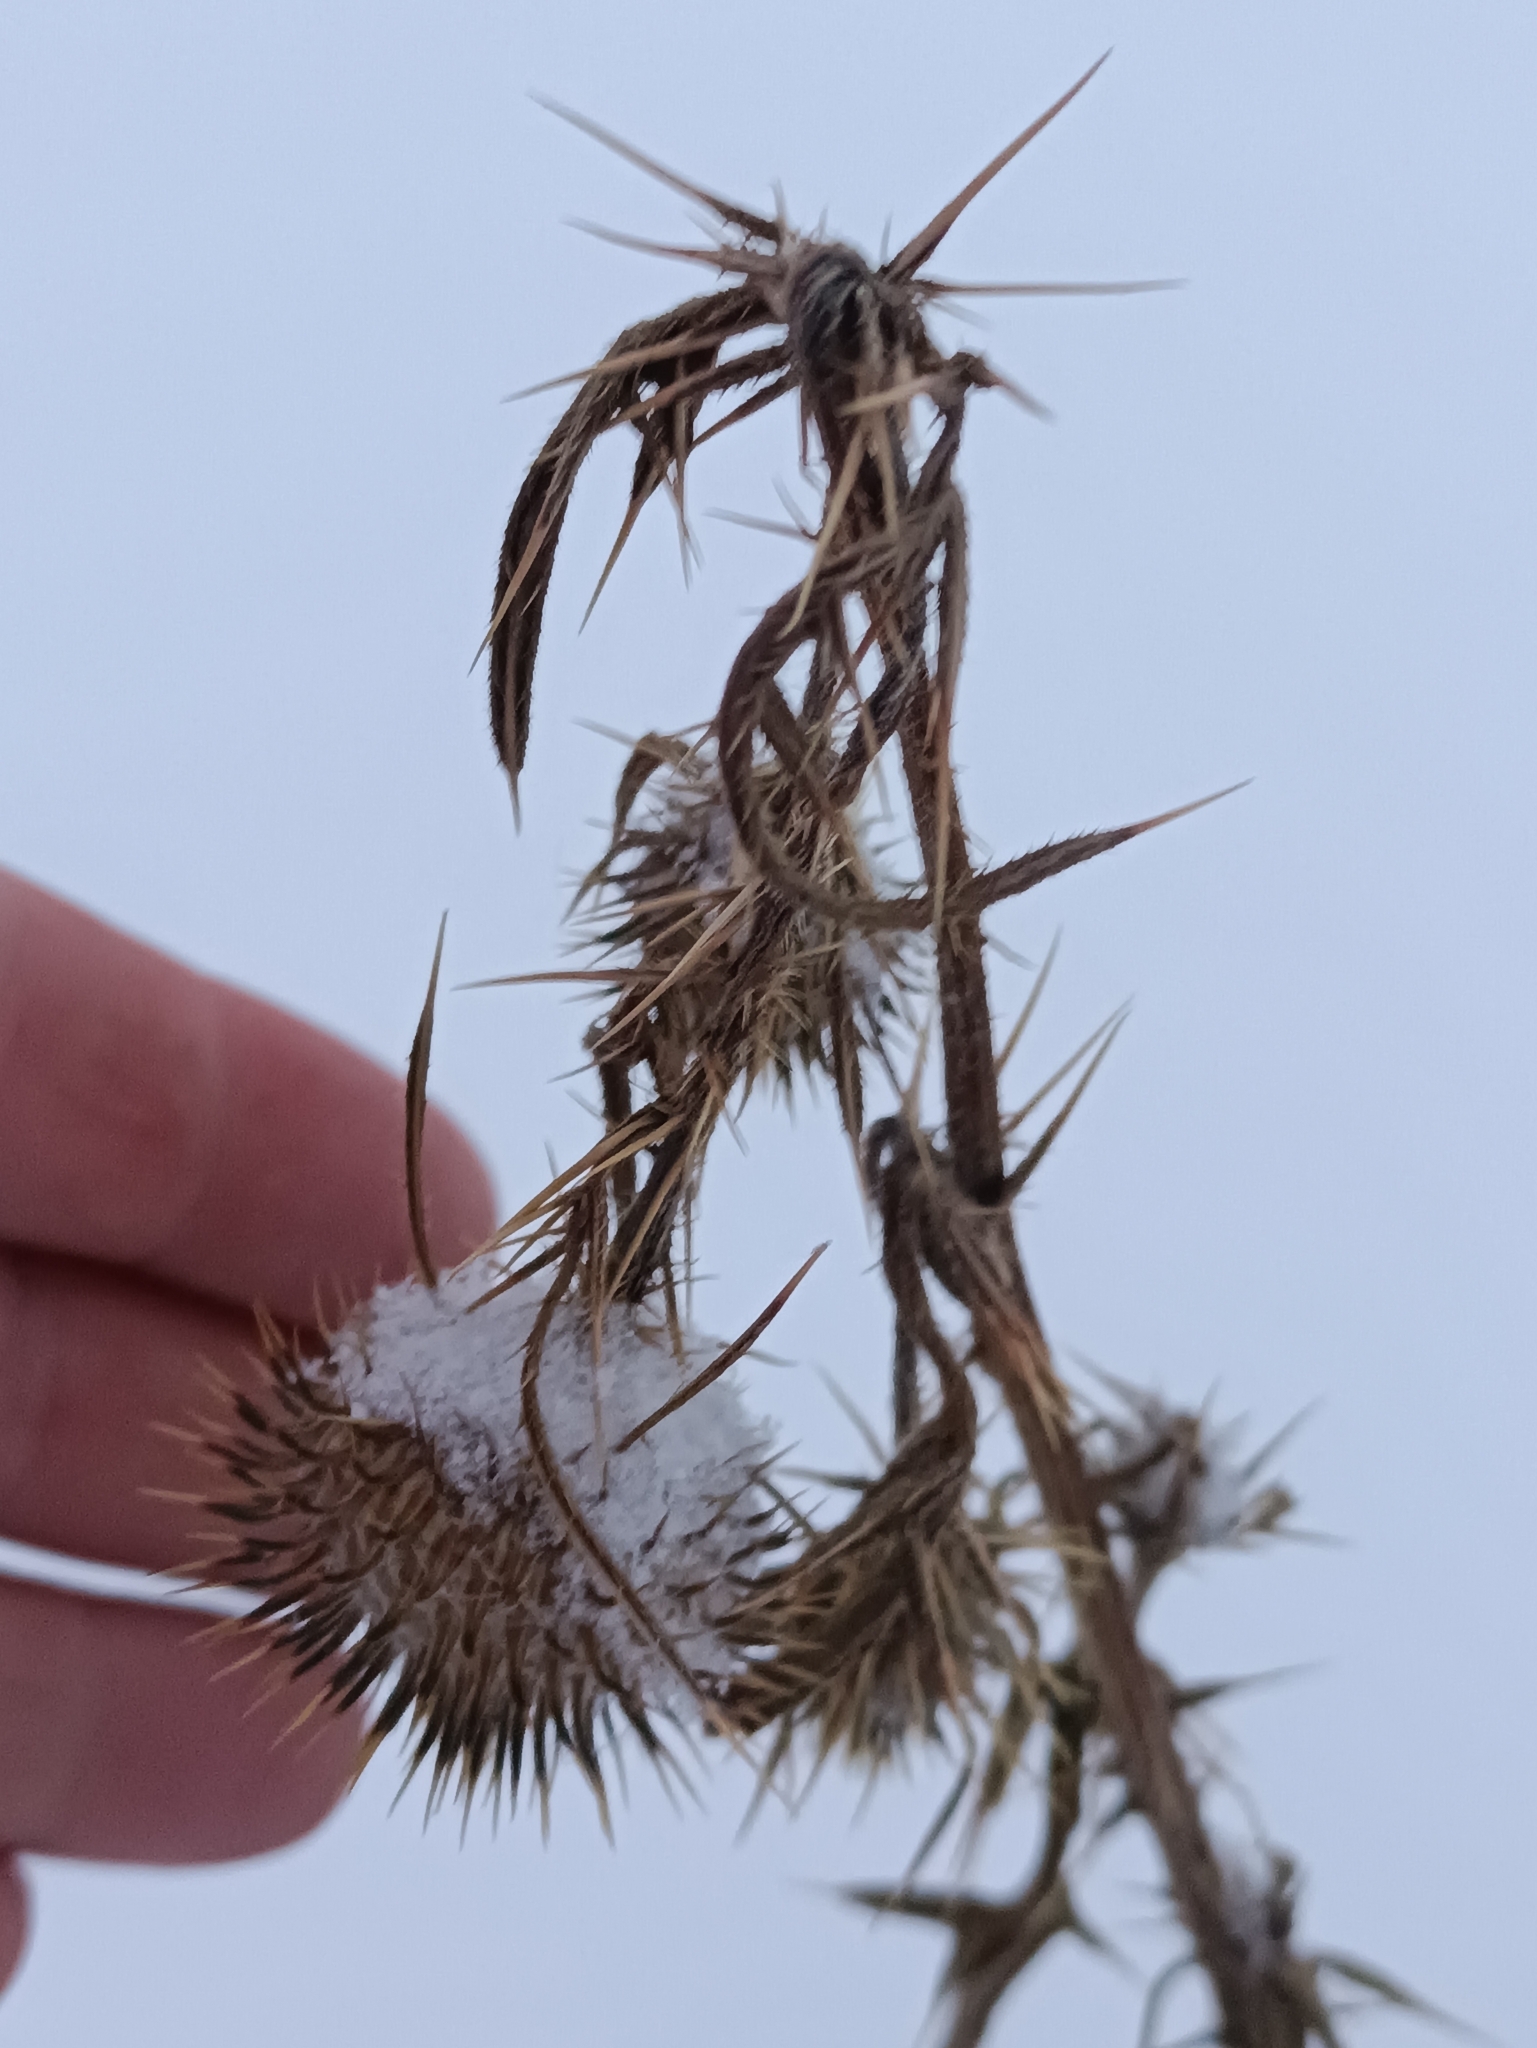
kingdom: Plantae
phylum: Tracheophyta
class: Magnoliopsida
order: Asterales
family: Asteraceae
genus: Cirsium
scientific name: Cirsium vulgare
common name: Bull thistle
